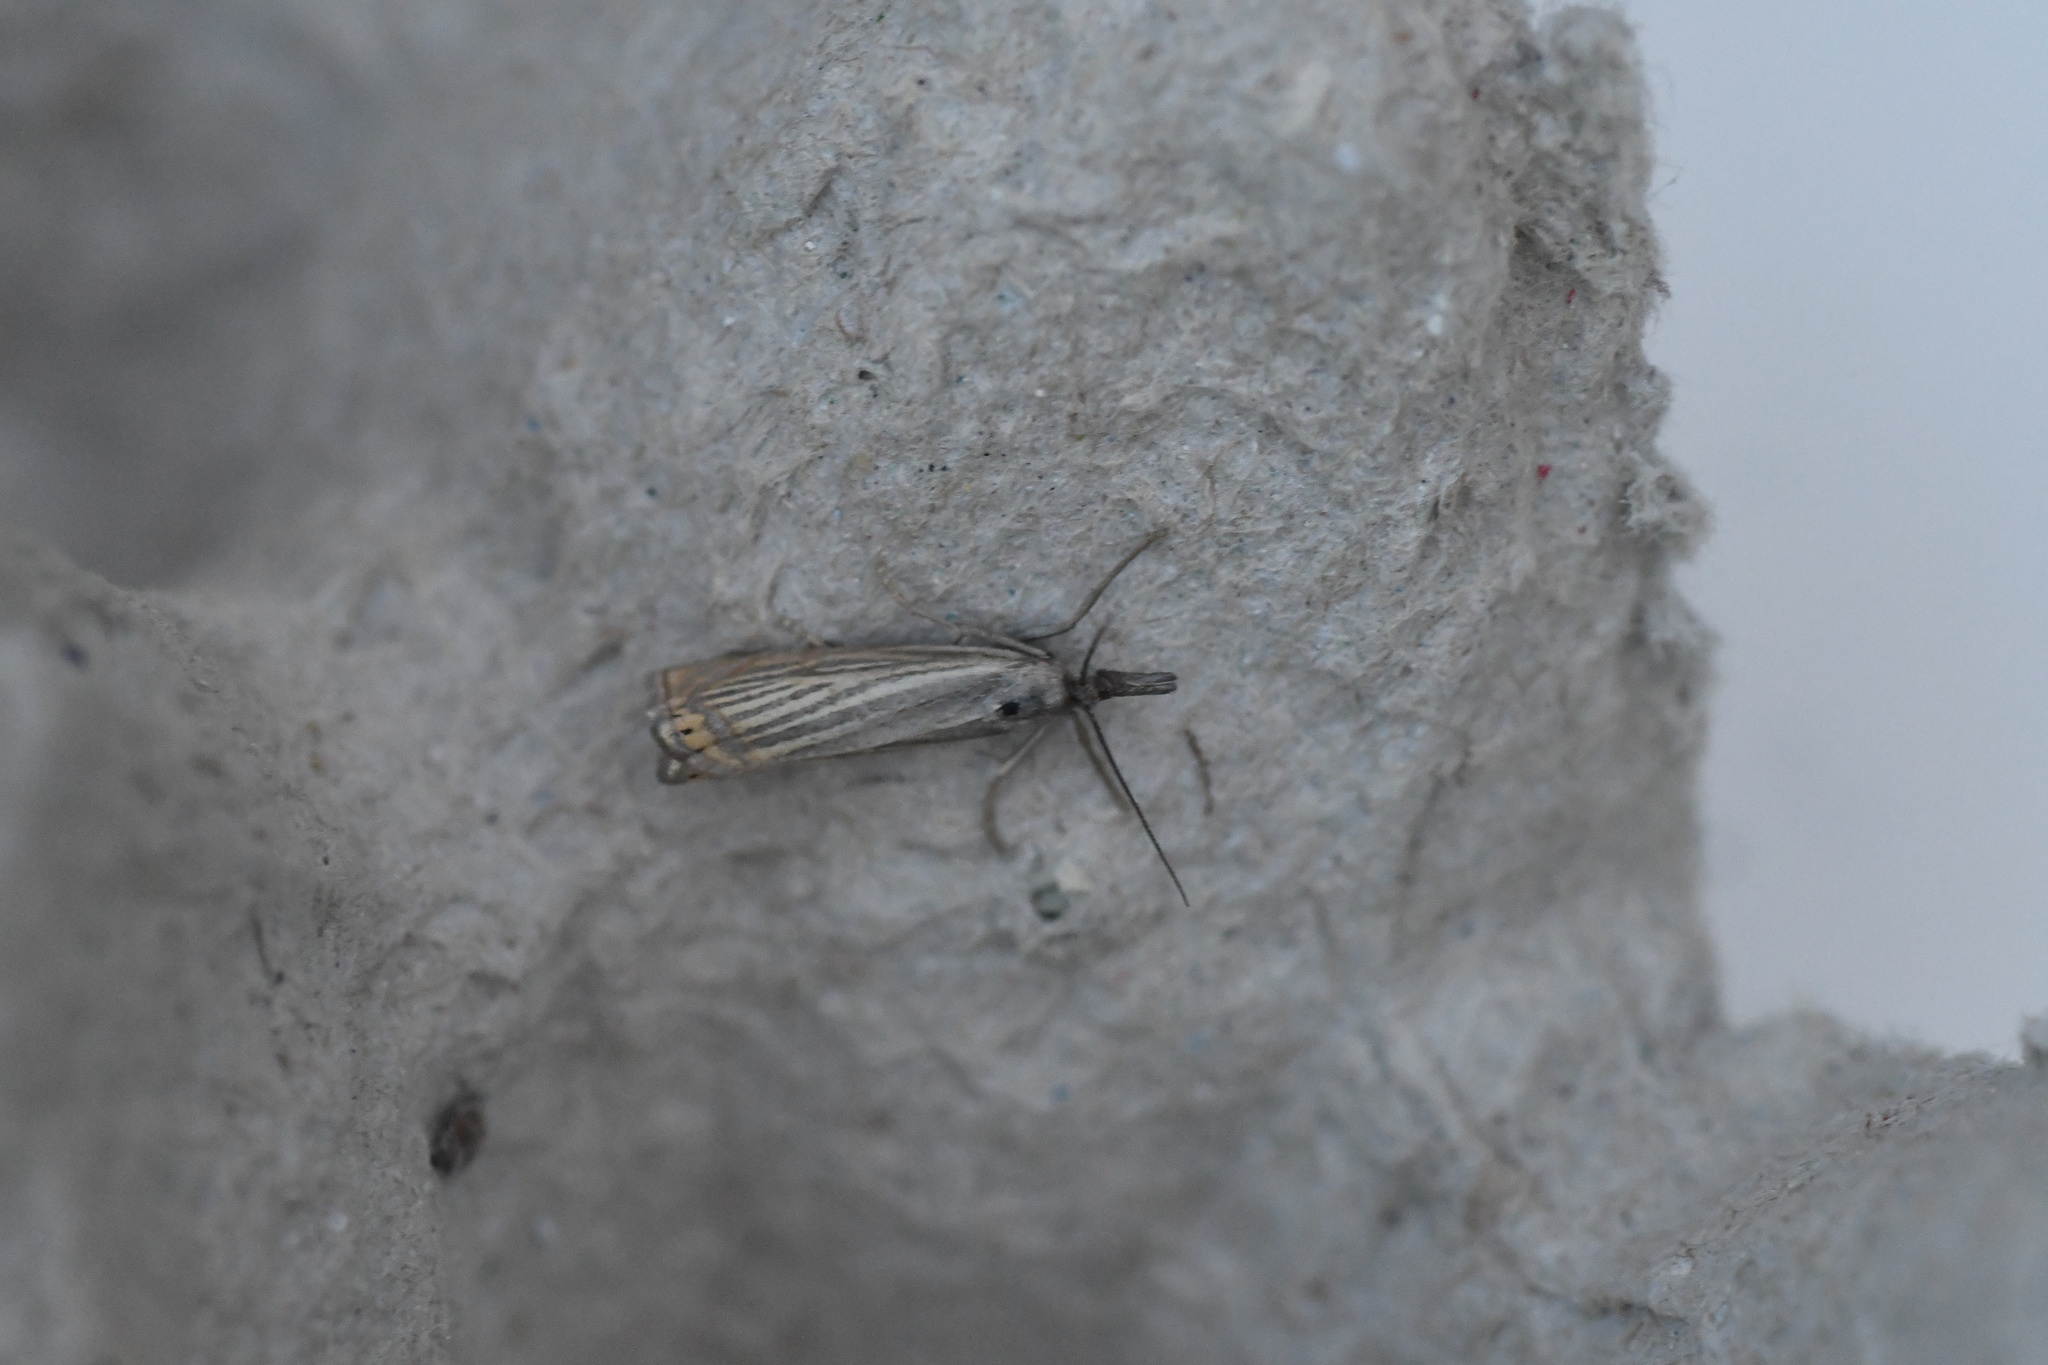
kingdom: Animalia
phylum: Arthropoda
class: Insecta
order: Lepidoptera
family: Crambidae
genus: Chrysoteuchia
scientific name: Chrysoteuchia culmella
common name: Garden grass-veneer
